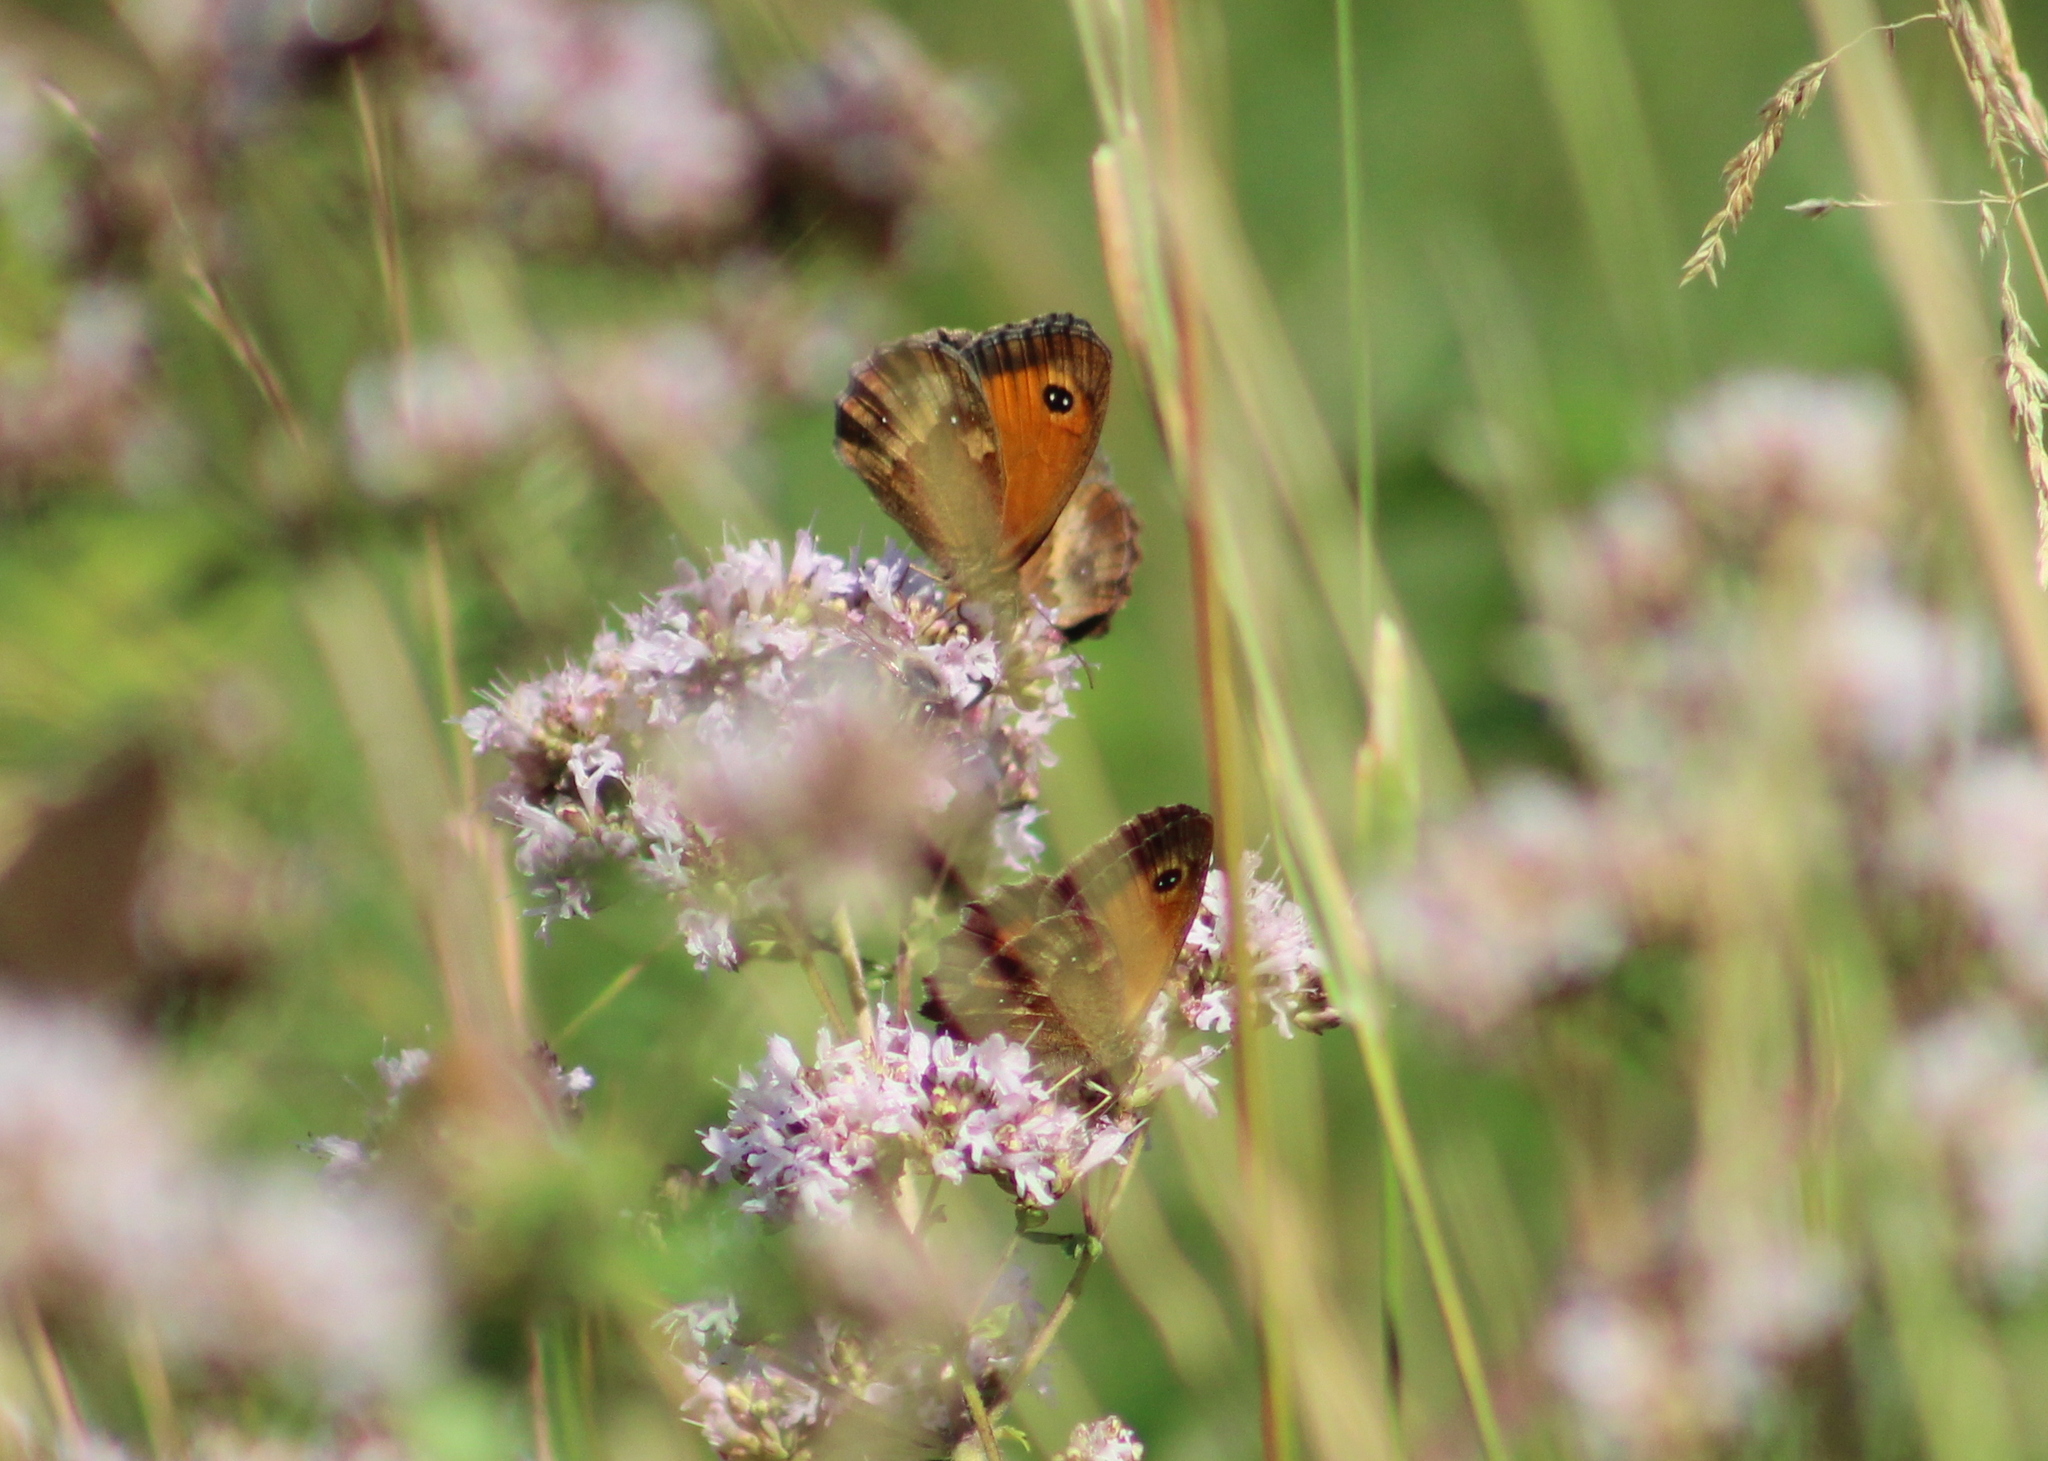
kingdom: Animalia
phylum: Arthropoda
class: Insecta
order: Lepidoptera
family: Nymphalidae
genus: Pyronia
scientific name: Pyronia tithonus
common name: Gatekeeper
